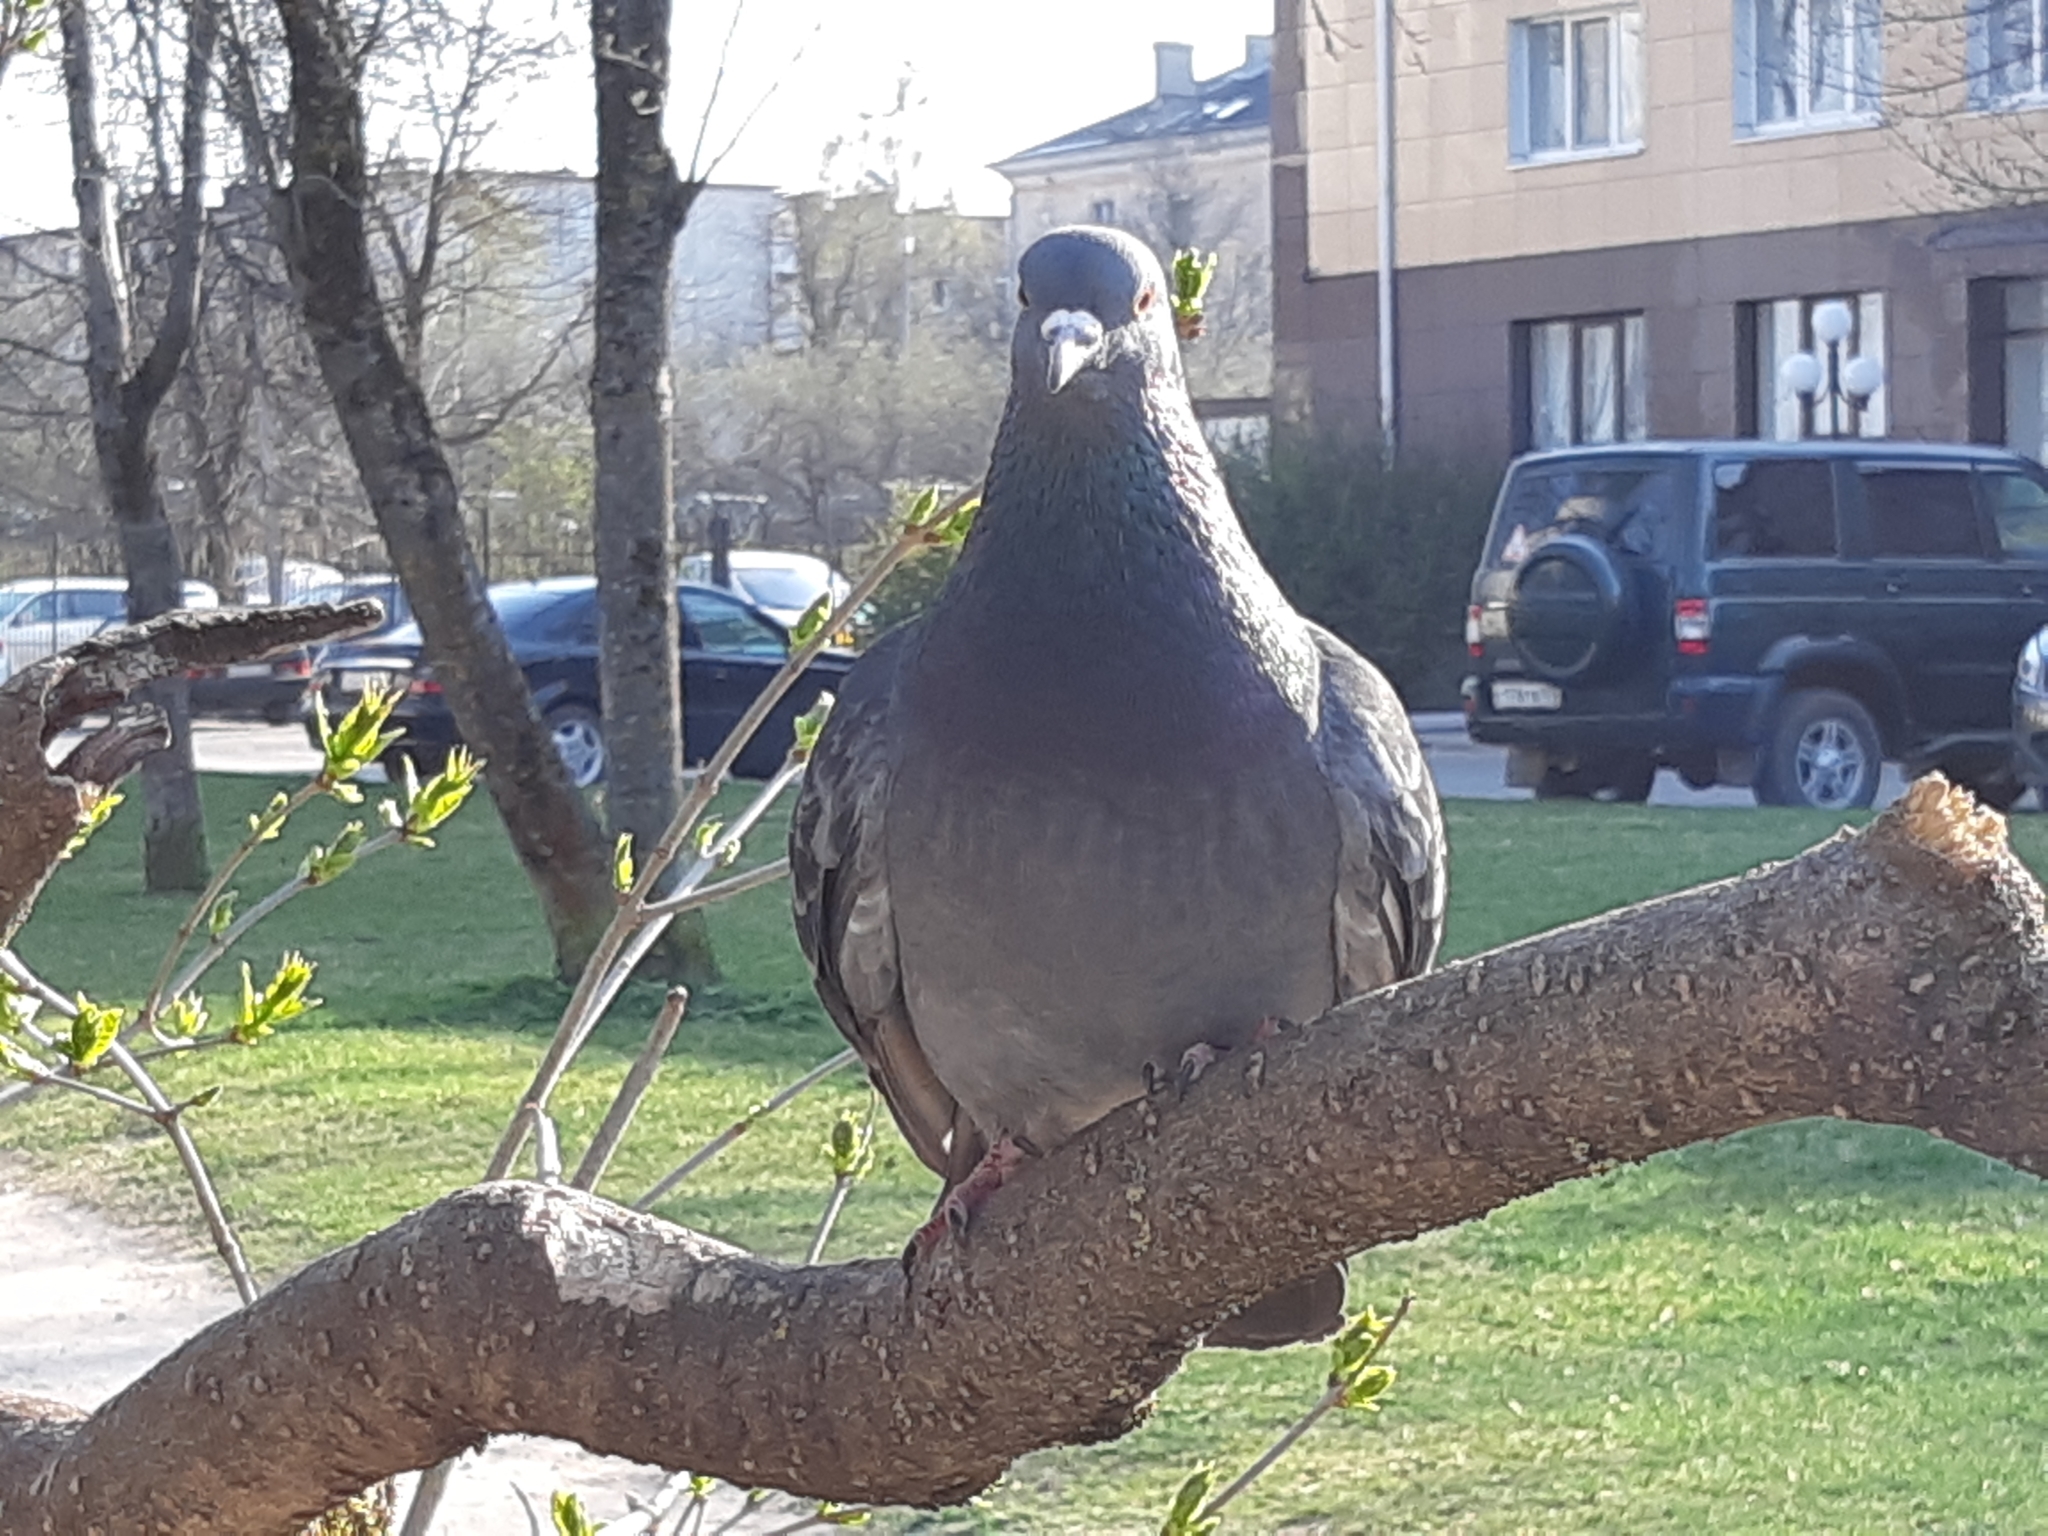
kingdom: Animalia
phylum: Chordata
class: Aves
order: Columbiformes
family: Columbidae
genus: Columba
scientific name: Columba livia
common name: Rock pigeon
